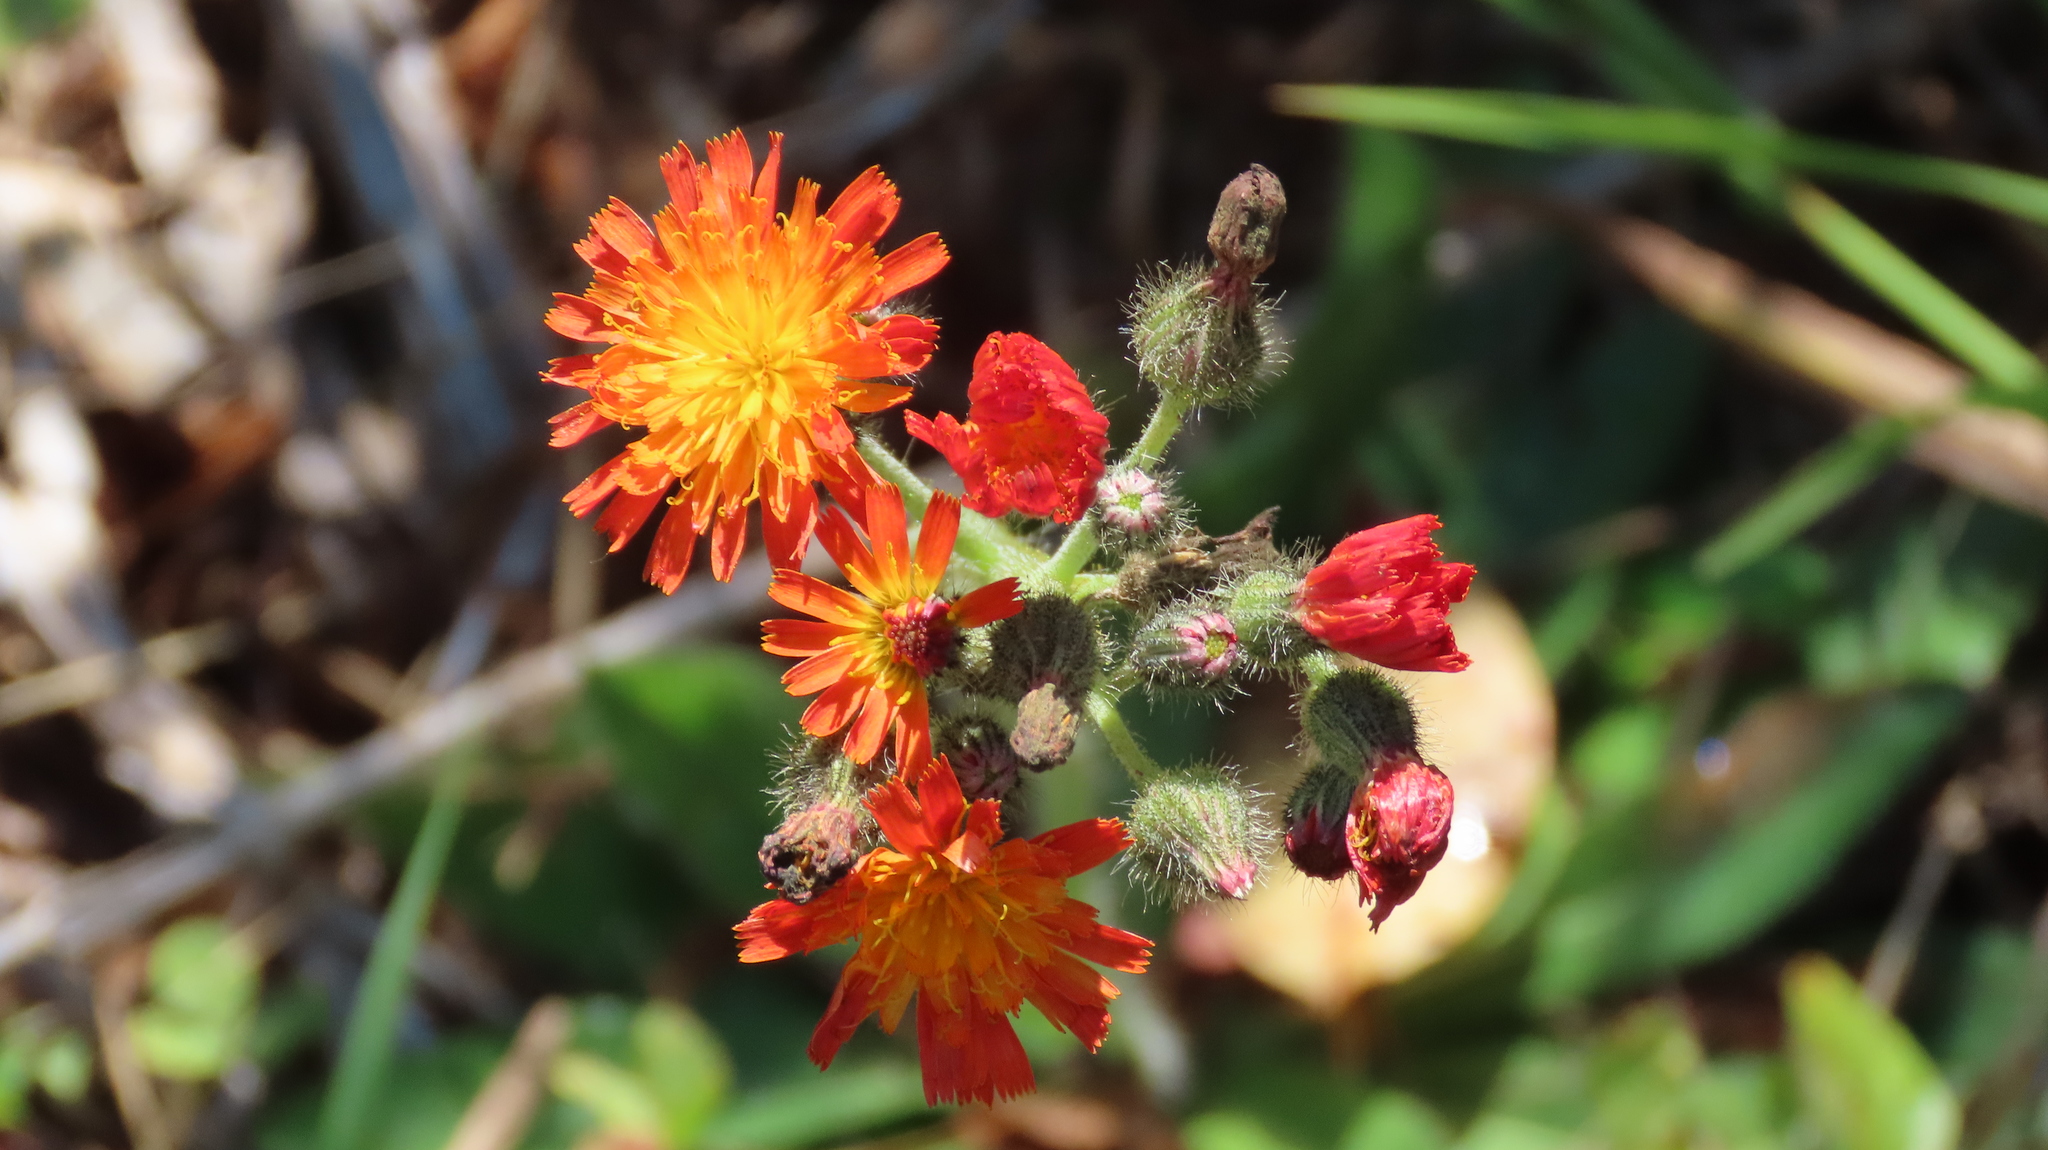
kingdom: Plantae
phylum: Tracheophyta
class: Magnoliopsida
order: Asterales
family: Asteraceae
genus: Pilosella
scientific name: Pilosella aurantiaca
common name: Fox-and-cubs
